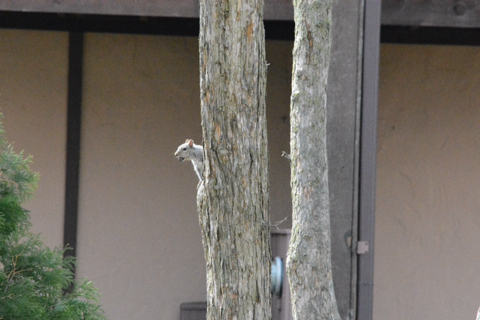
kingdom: Animalia
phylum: Chordata
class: Mammalia
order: Rodentia
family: Sciuridae
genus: Sciurus
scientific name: Sciurus carolinensis
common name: Eastern gray squirrel
